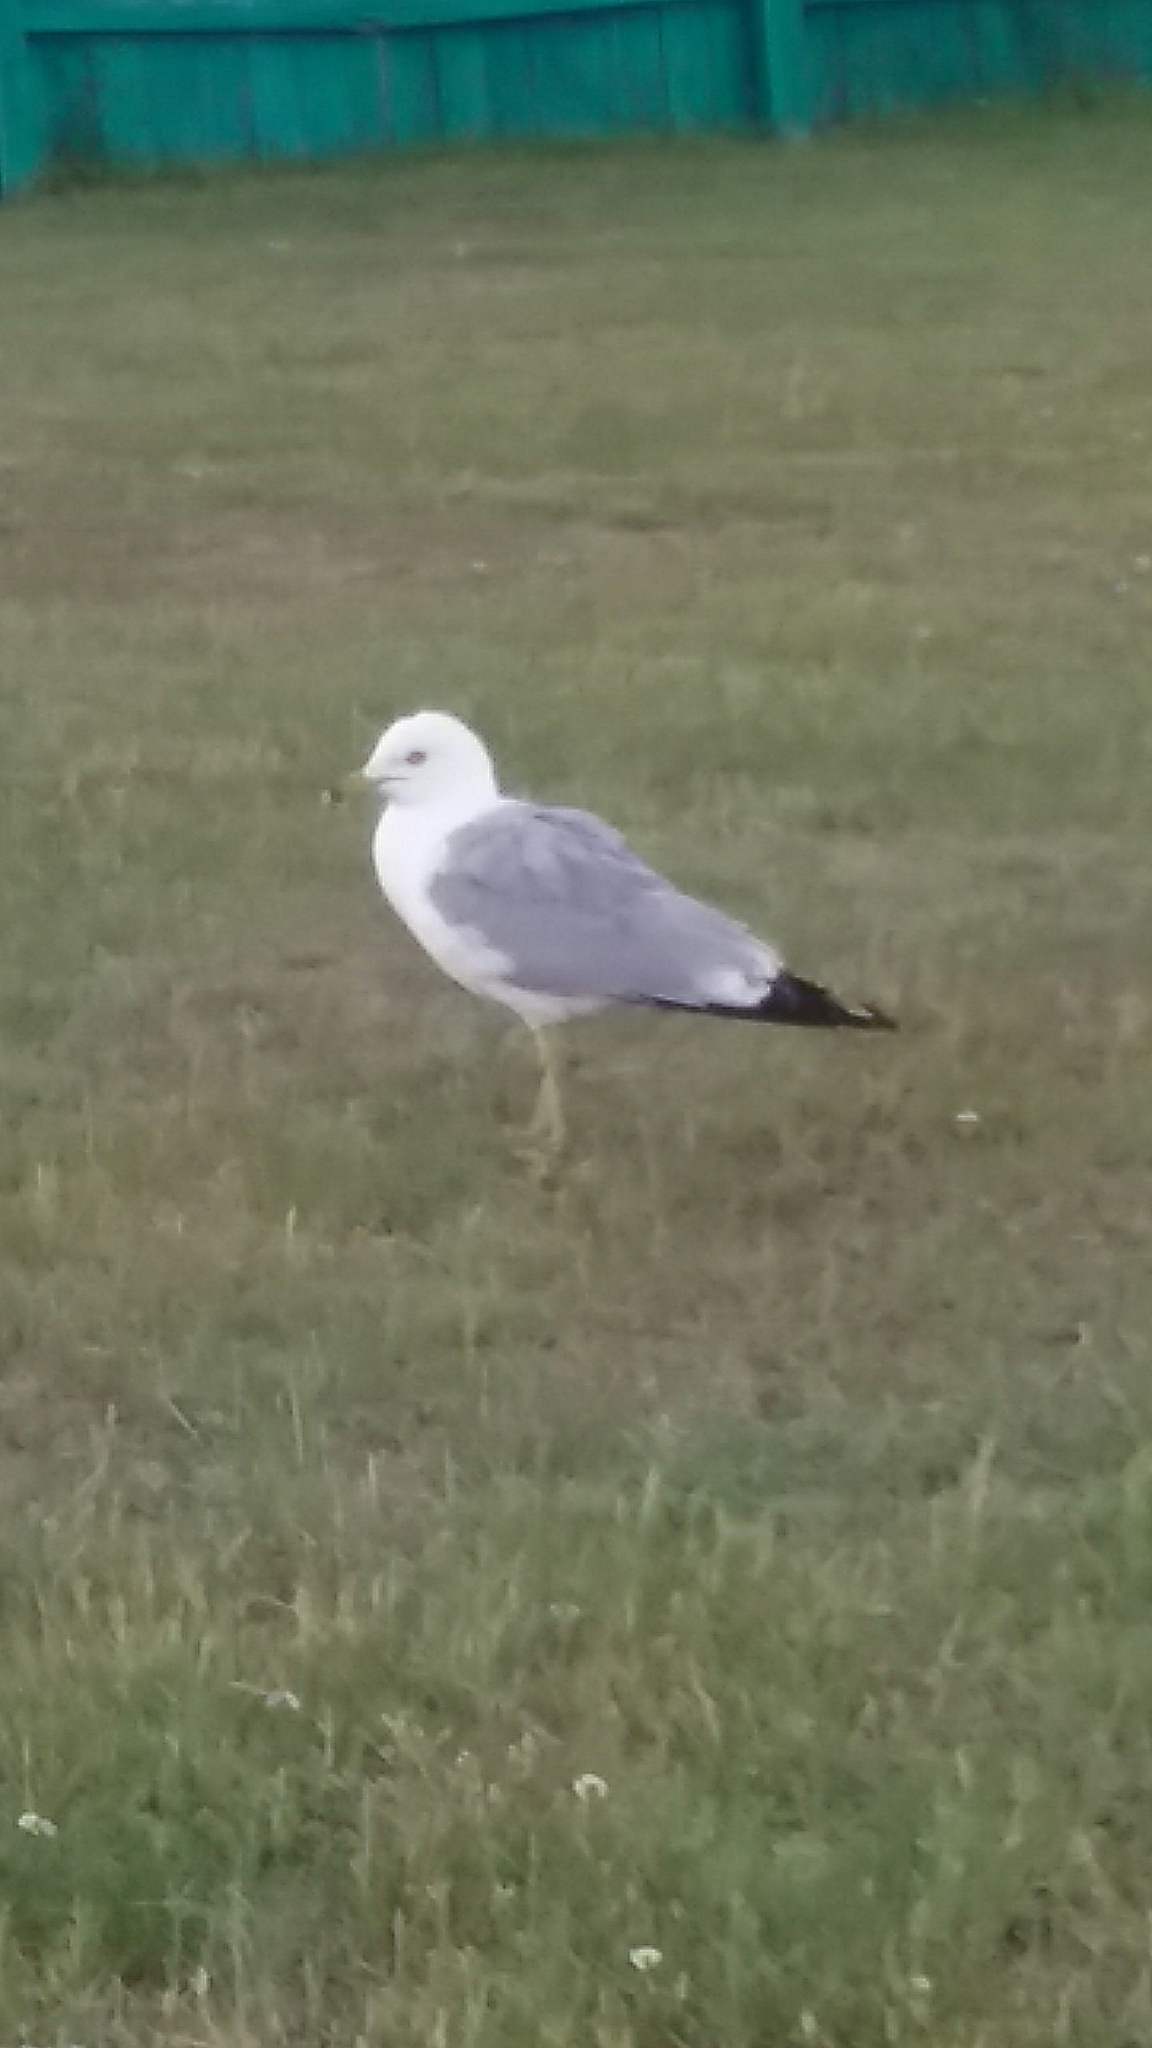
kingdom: Animalia
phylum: Chordata
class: Aves
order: Charadriiformes
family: Laridae
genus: Larus
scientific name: Larus delawarensis
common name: Ring-billed gull
